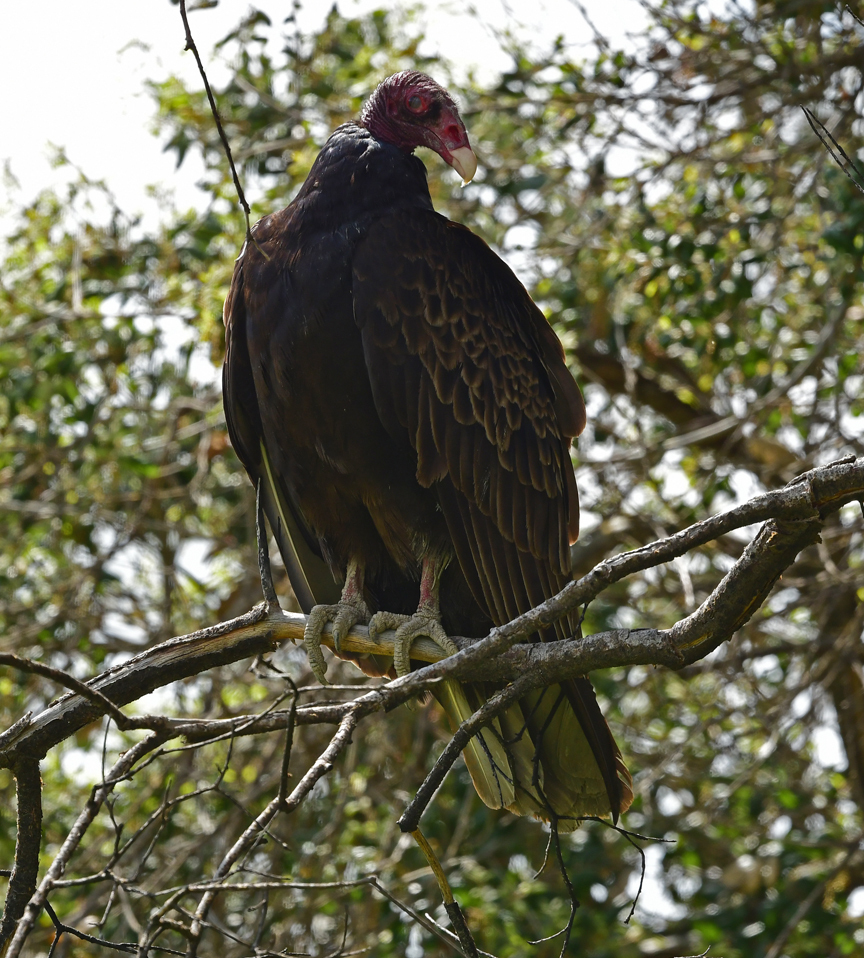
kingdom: Animalia
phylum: Chordata
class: Aves
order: Accipitriformes
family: Cathartidae
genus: Cathartes
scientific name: Cathartes aura
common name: Turkey vulture
